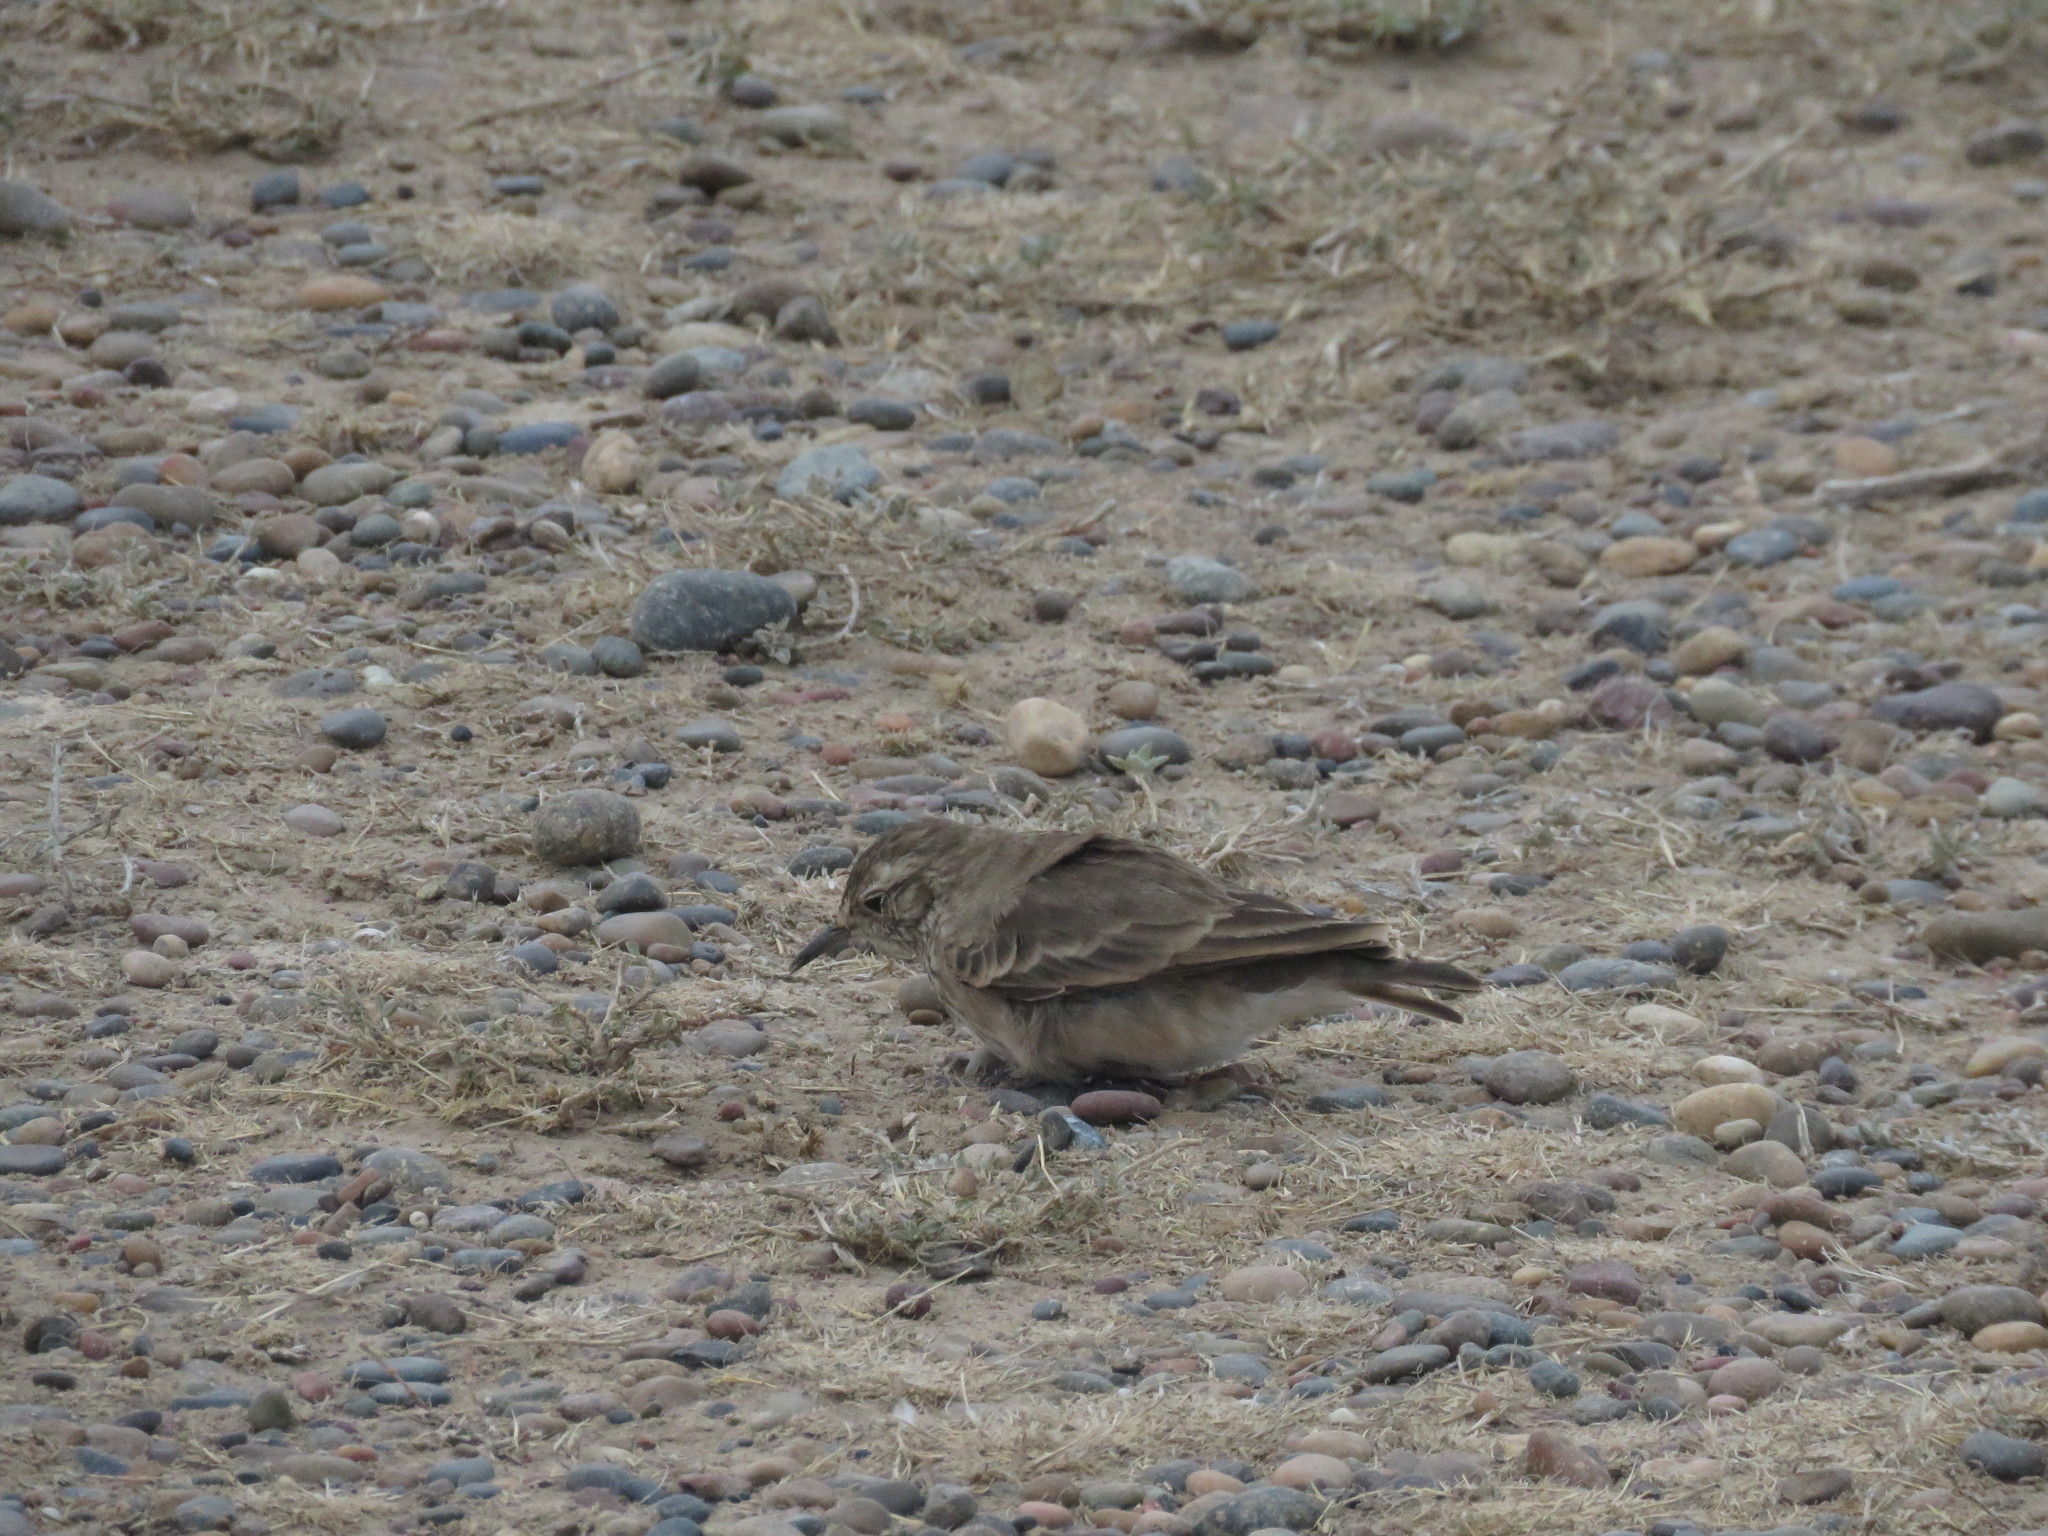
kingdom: Animalia
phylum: Chordata
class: Aves
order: Passeriformes
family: Furnariidae
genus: Geositta
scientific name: Geositta cunicularia
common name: Common miner
